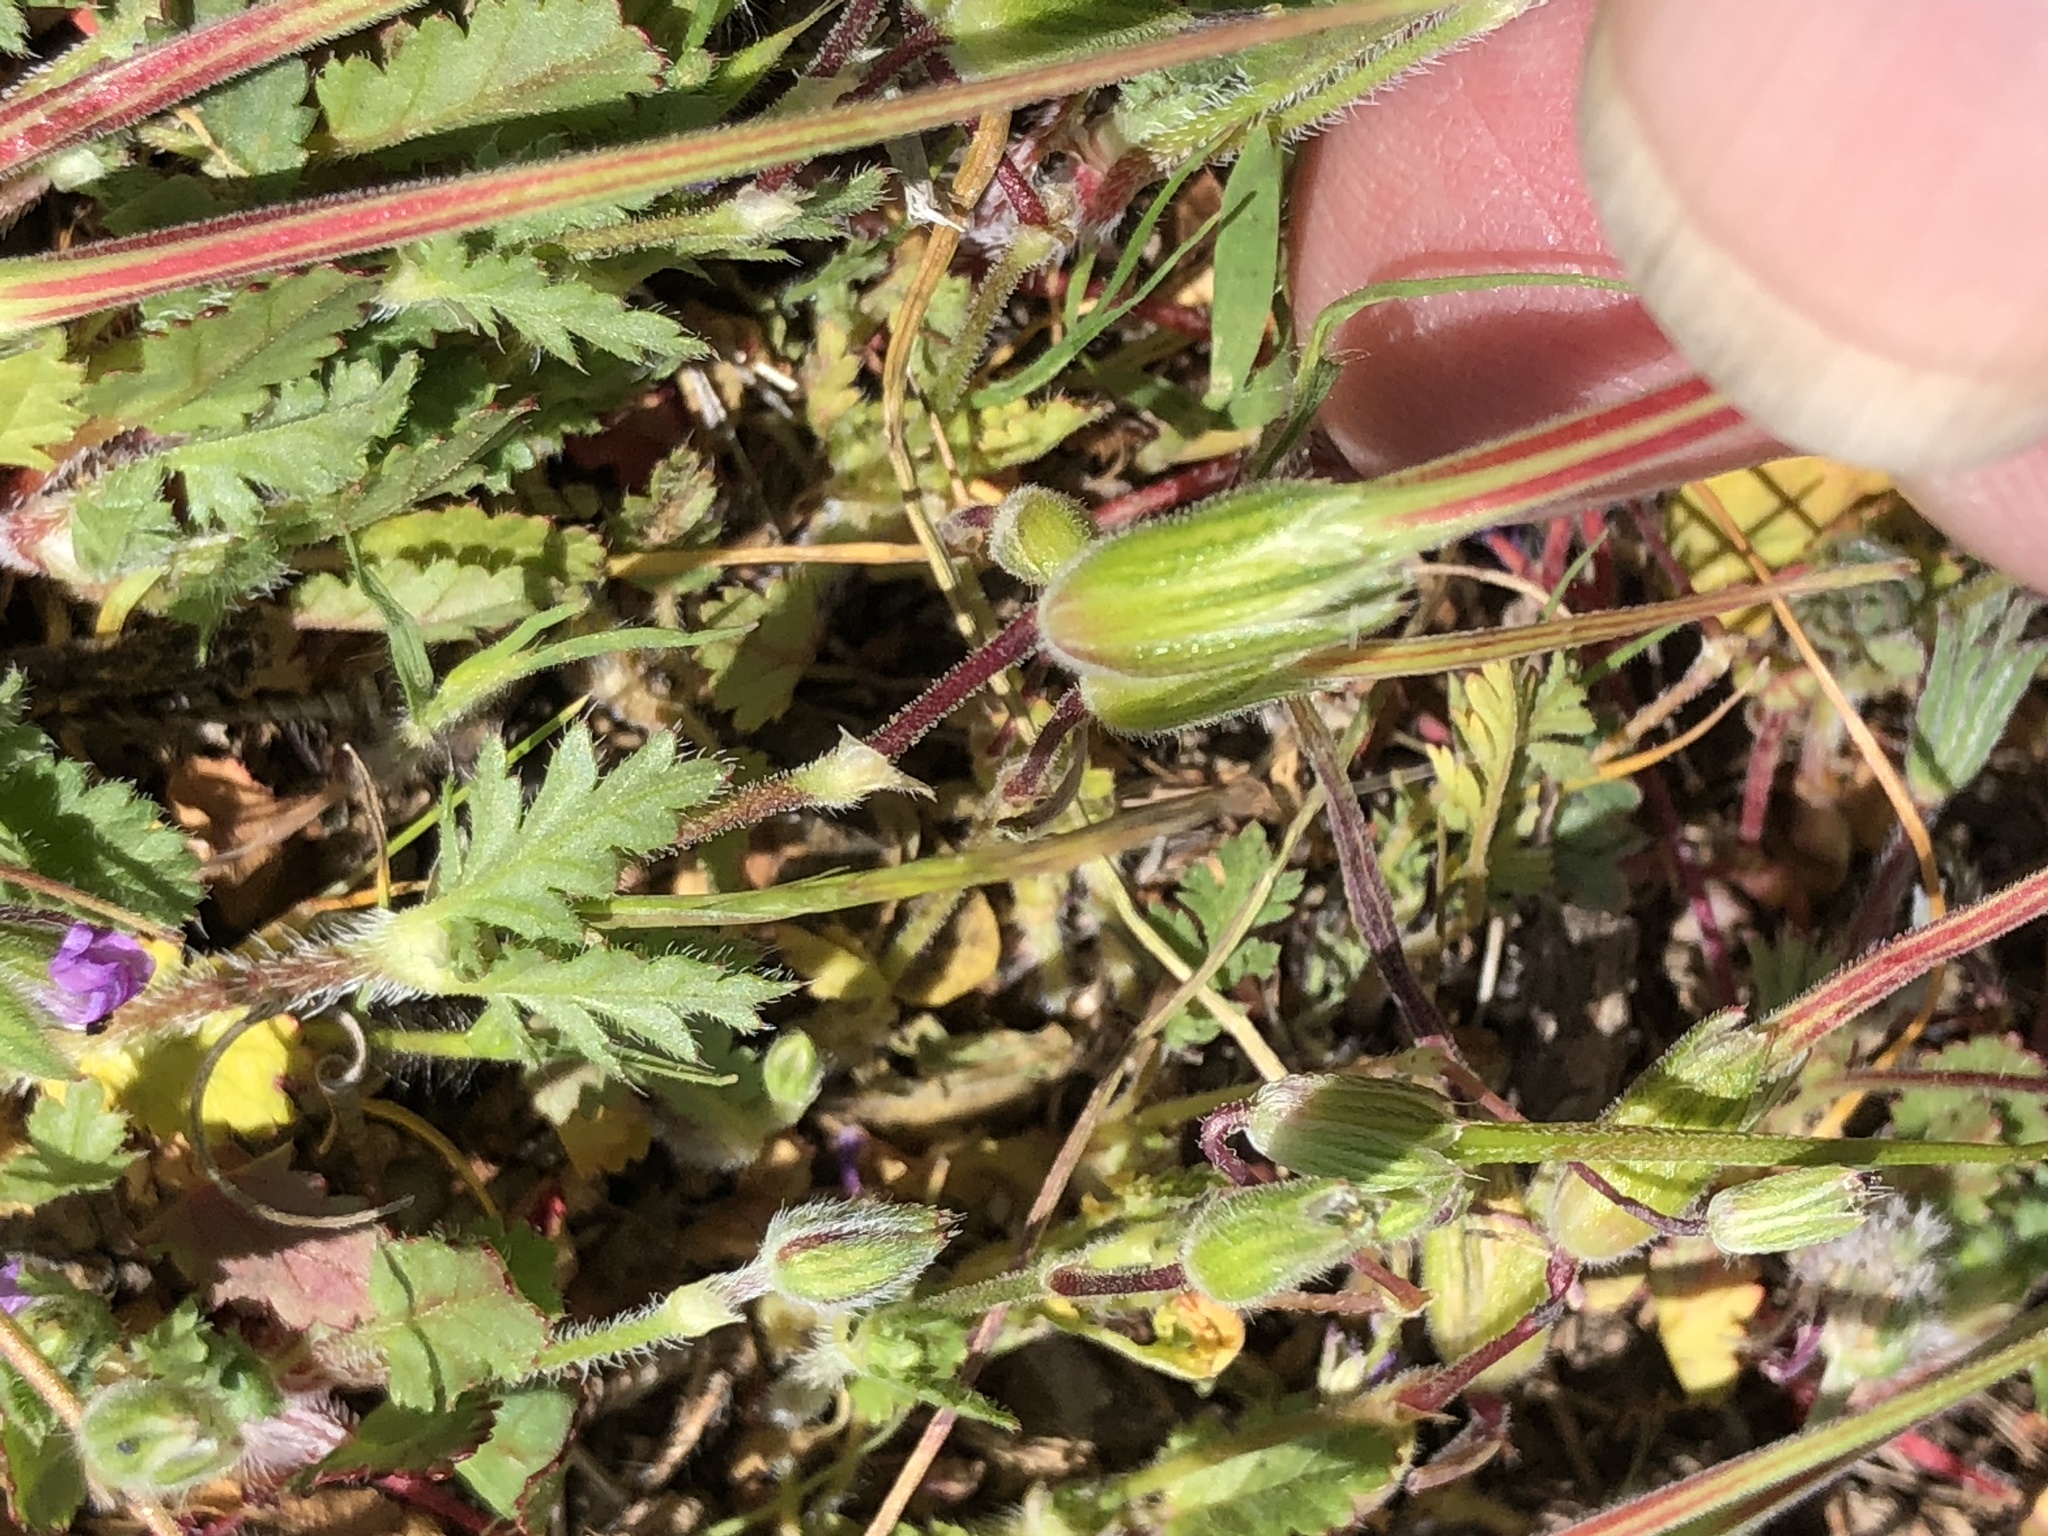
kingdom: Plantae
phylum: Tracheophyta
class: Magnoliopsida
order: Geraniales
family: Geraniaceae
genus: Erodium
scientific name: Erodium brachycarpum
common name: Hairy-pitted stork's-bill
